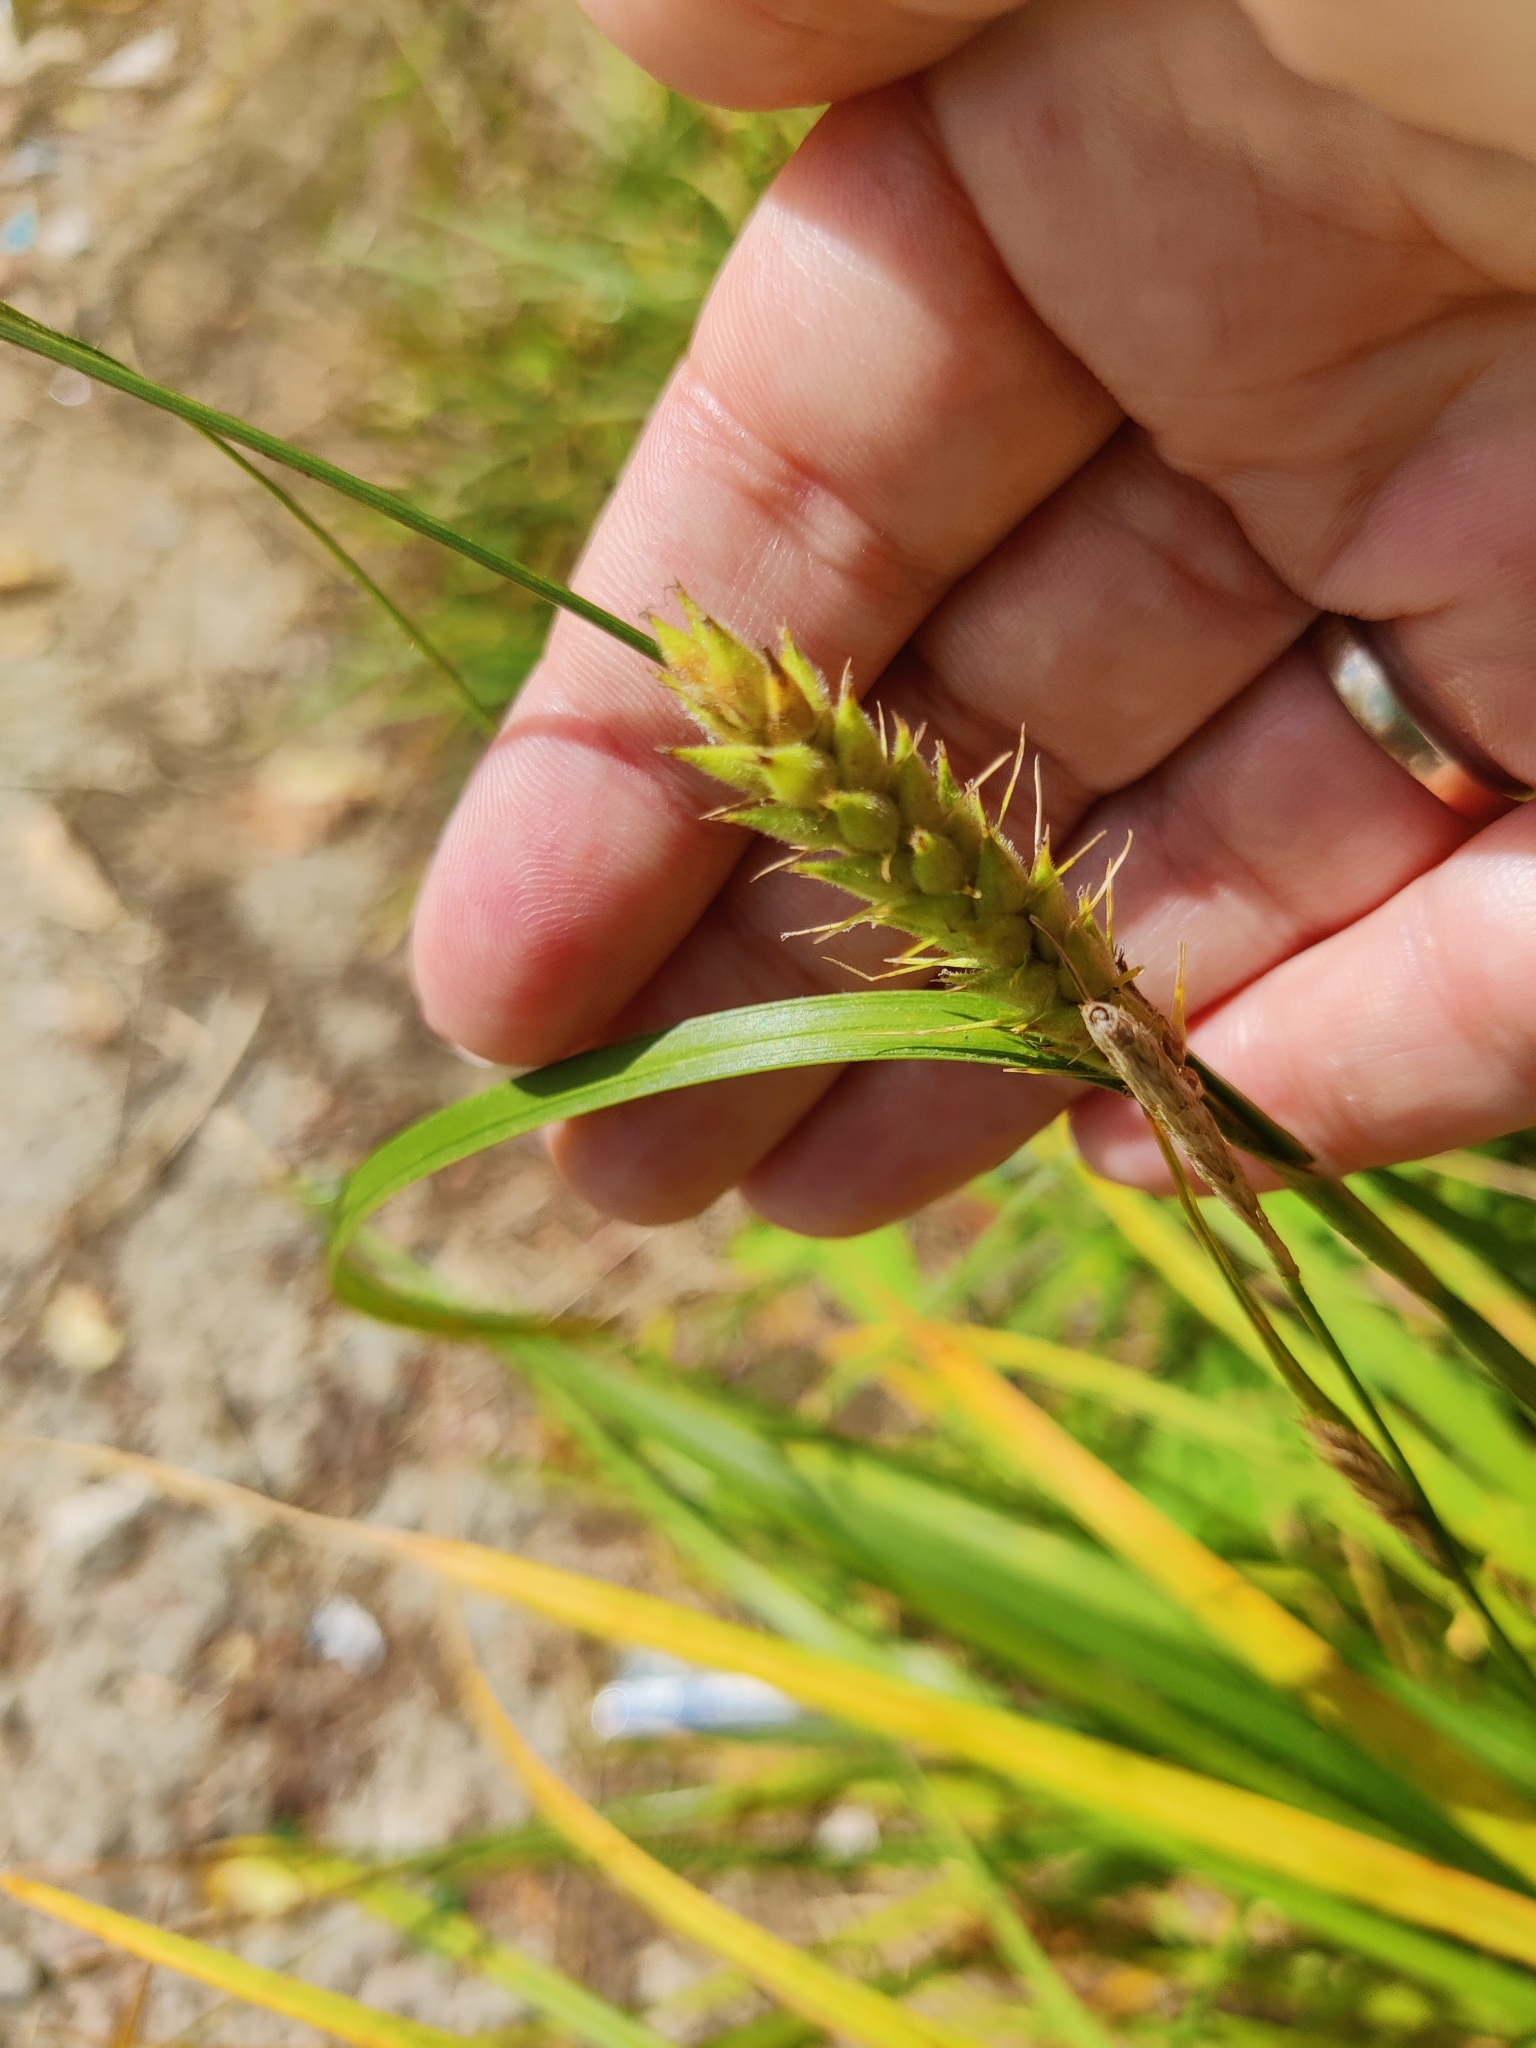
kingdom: Plantae
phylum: Tracheophyta
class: Liliopsida
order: Poales
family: Cyperaceae
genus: Carex
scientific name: Carex hirta
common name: Hairy sedge
